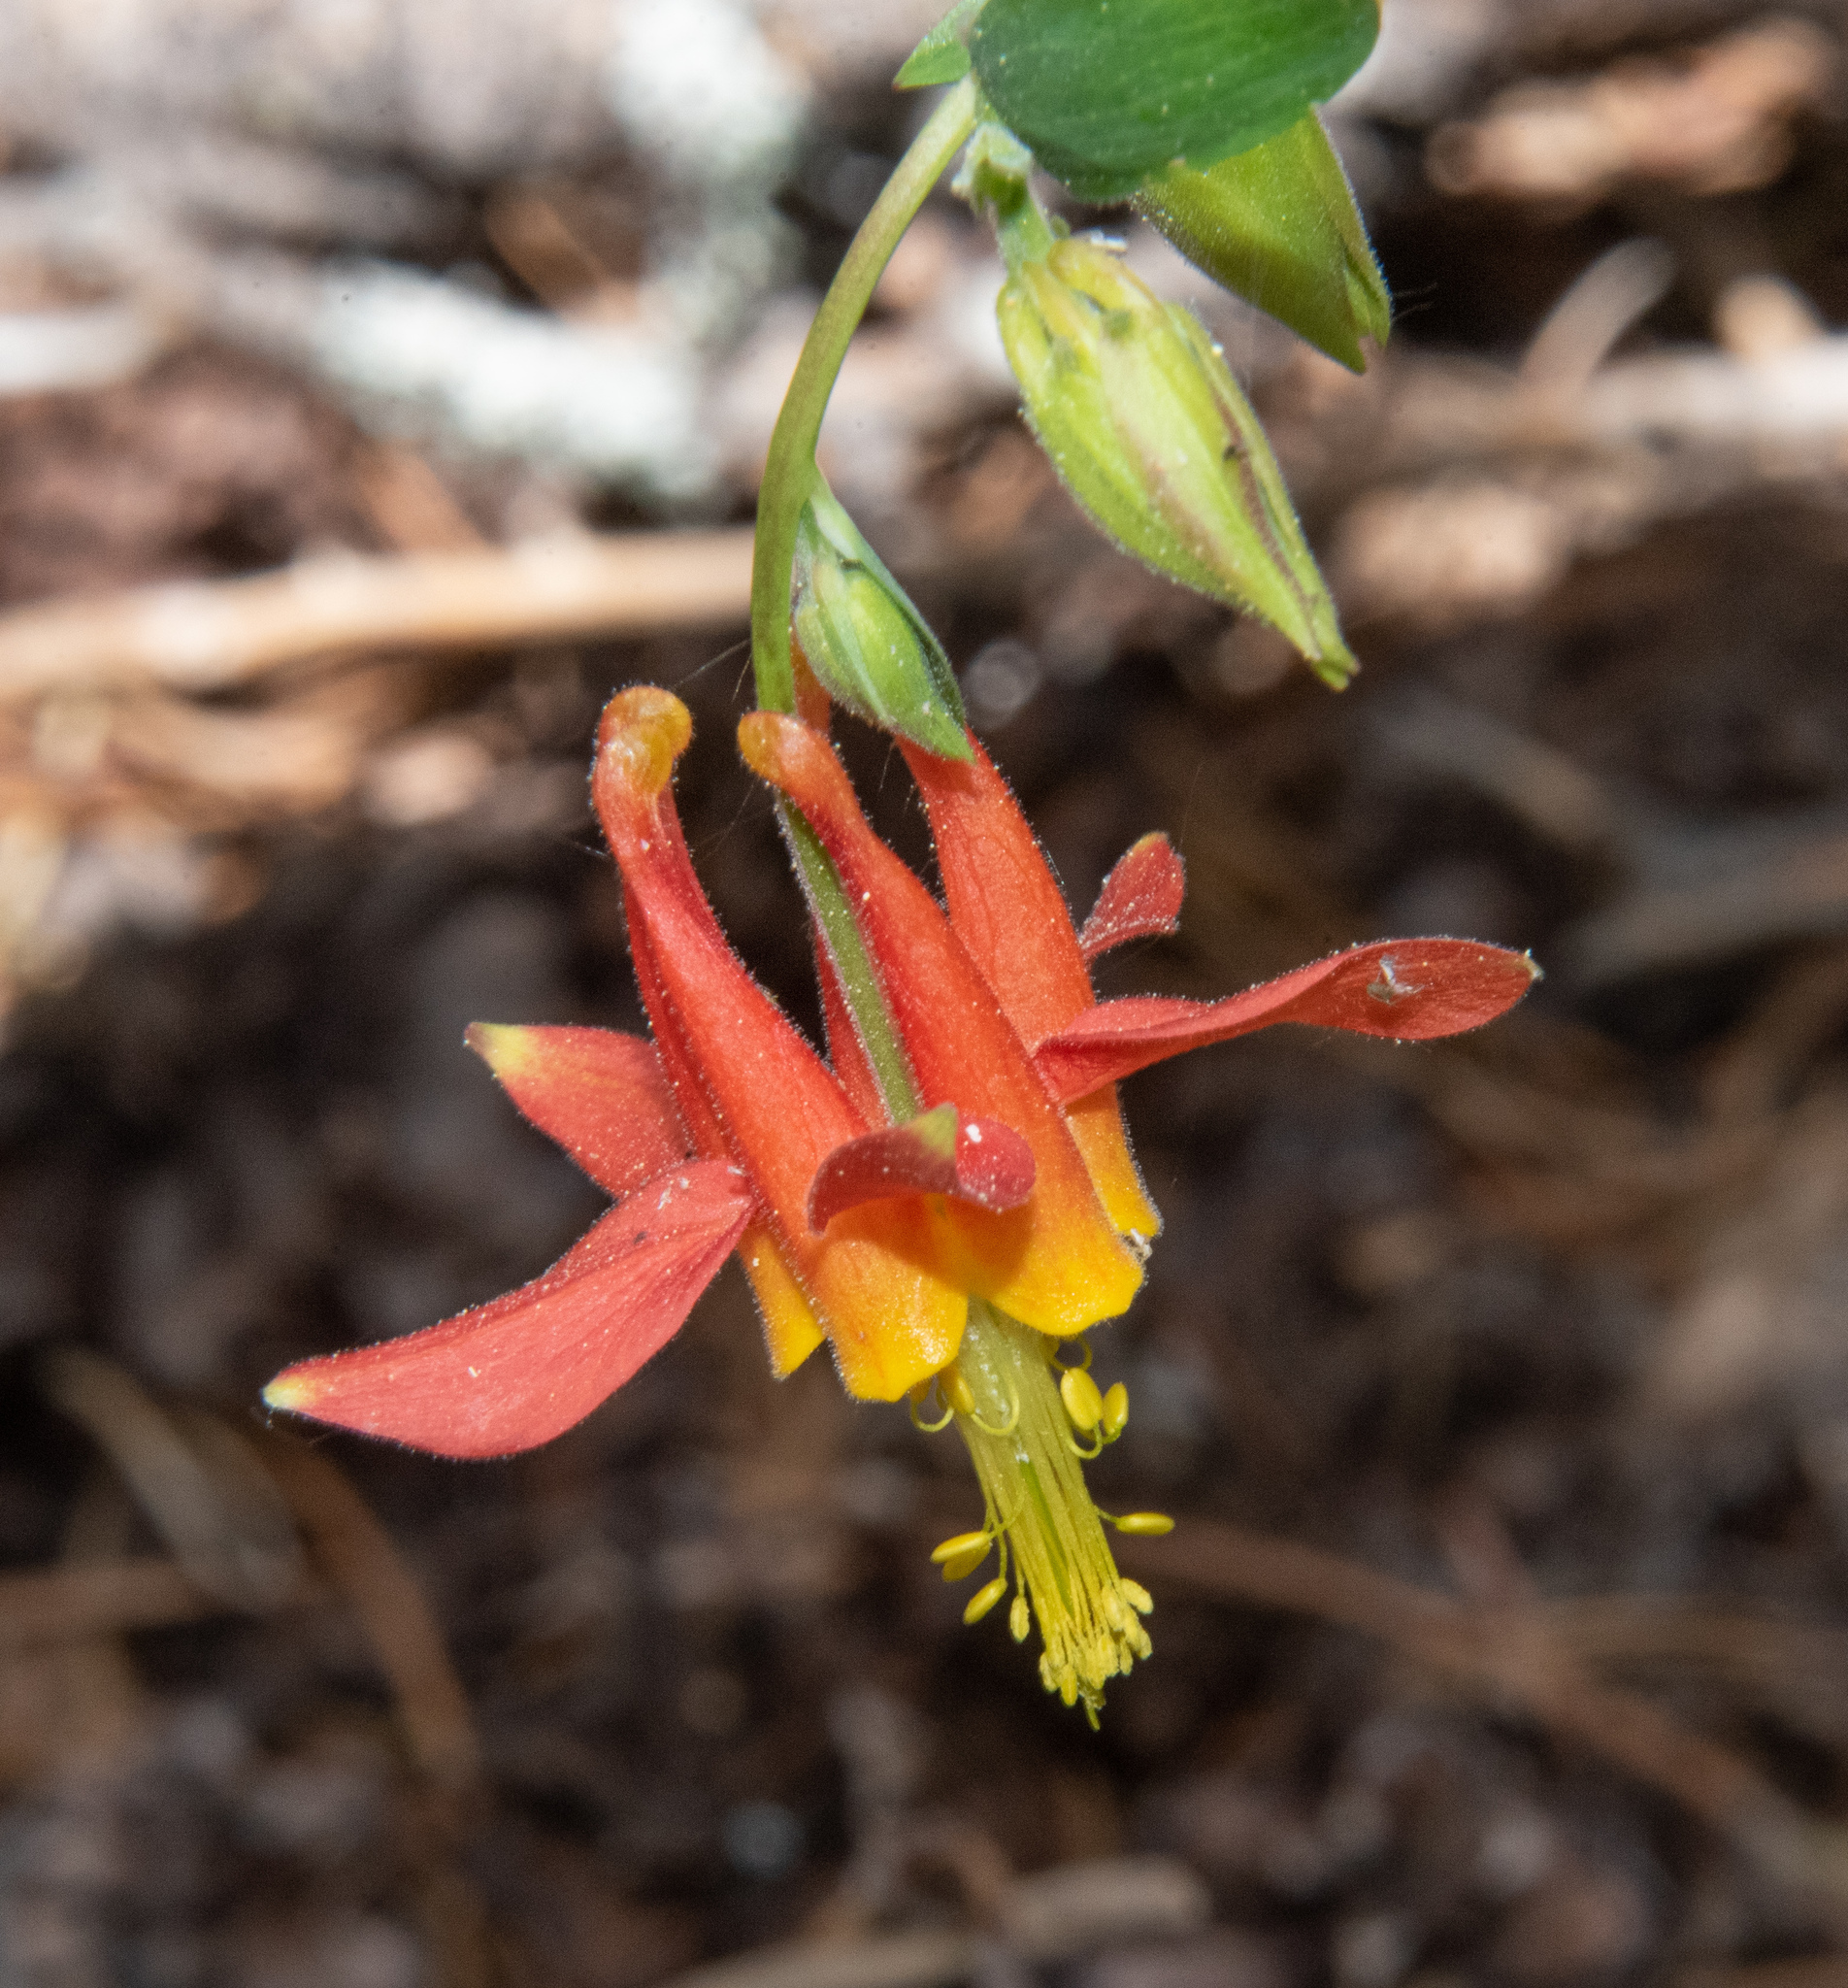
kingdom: Plantae
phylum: Tracheophyta
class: Magnoliopsida
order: Ranunculales
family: Ranunculaceae
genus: Aquilegia
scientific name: Aquilegia formosa
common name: Sitka columbine
